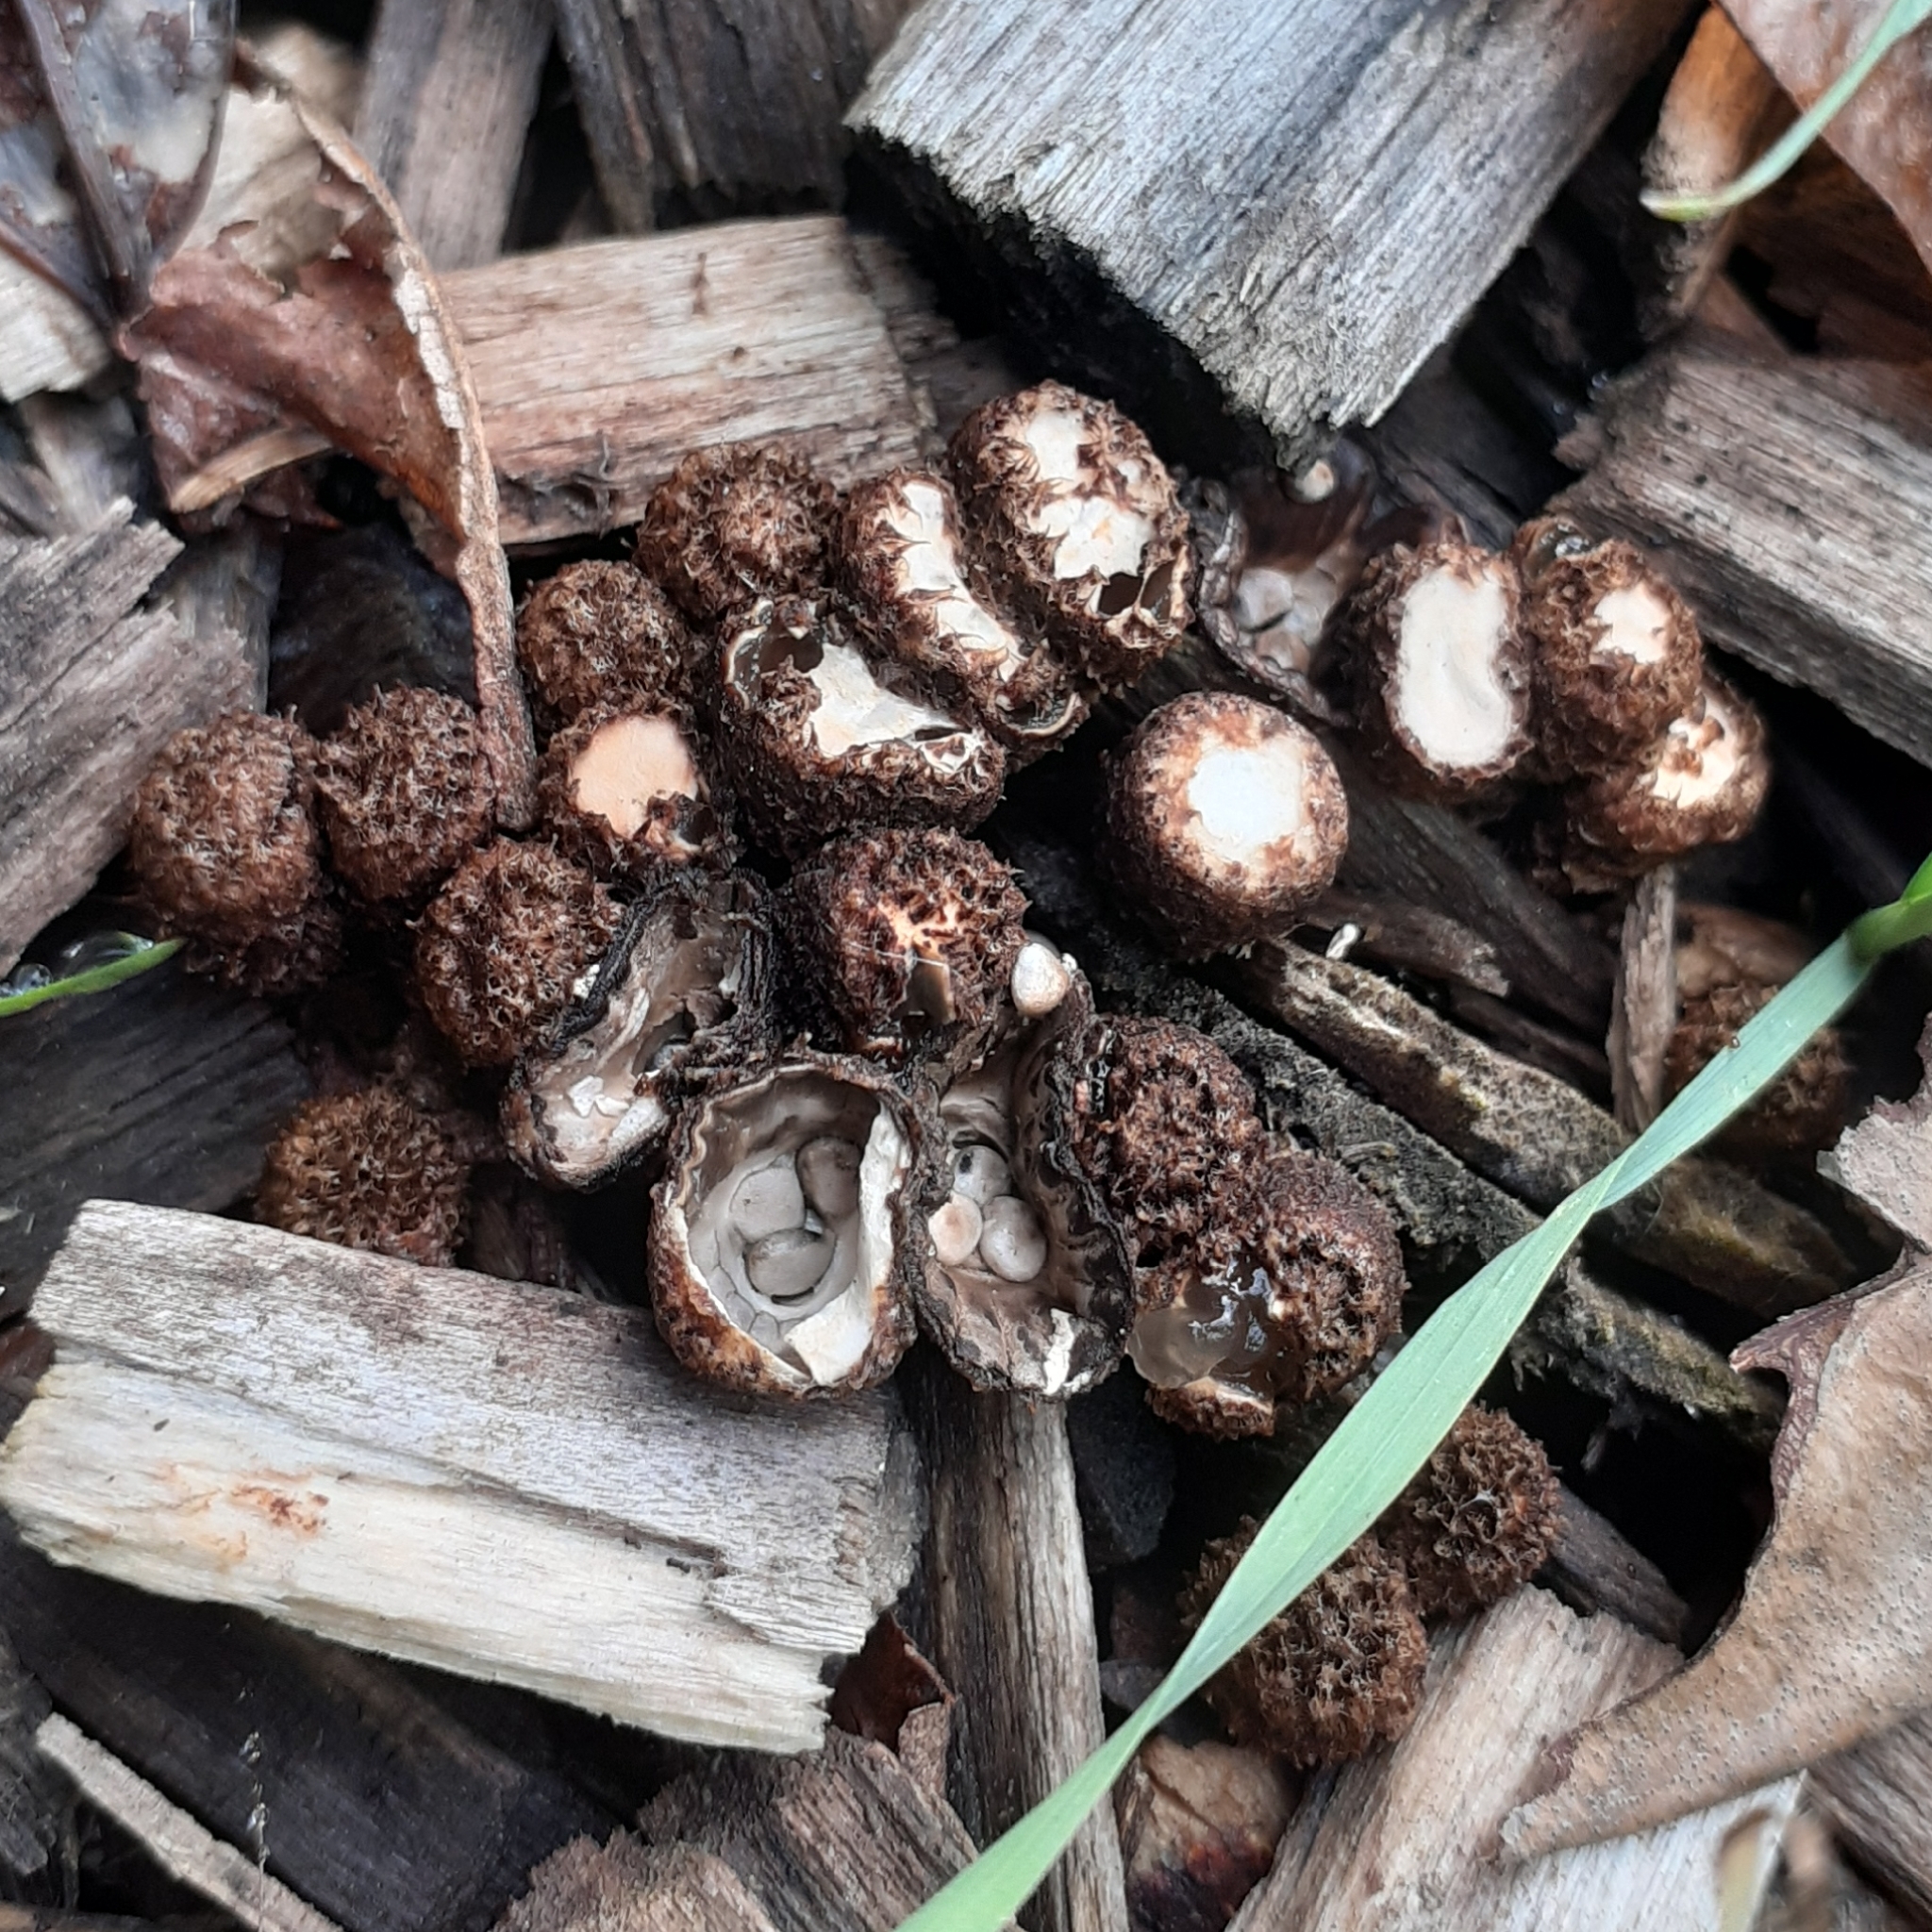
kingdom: Fungi
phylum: Basidiomycota
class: Agaricomycetes
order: Agaricales
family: Agaricaceae
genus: Cyathus
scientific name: Cyathus striatus
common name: Fluted bird's nest
